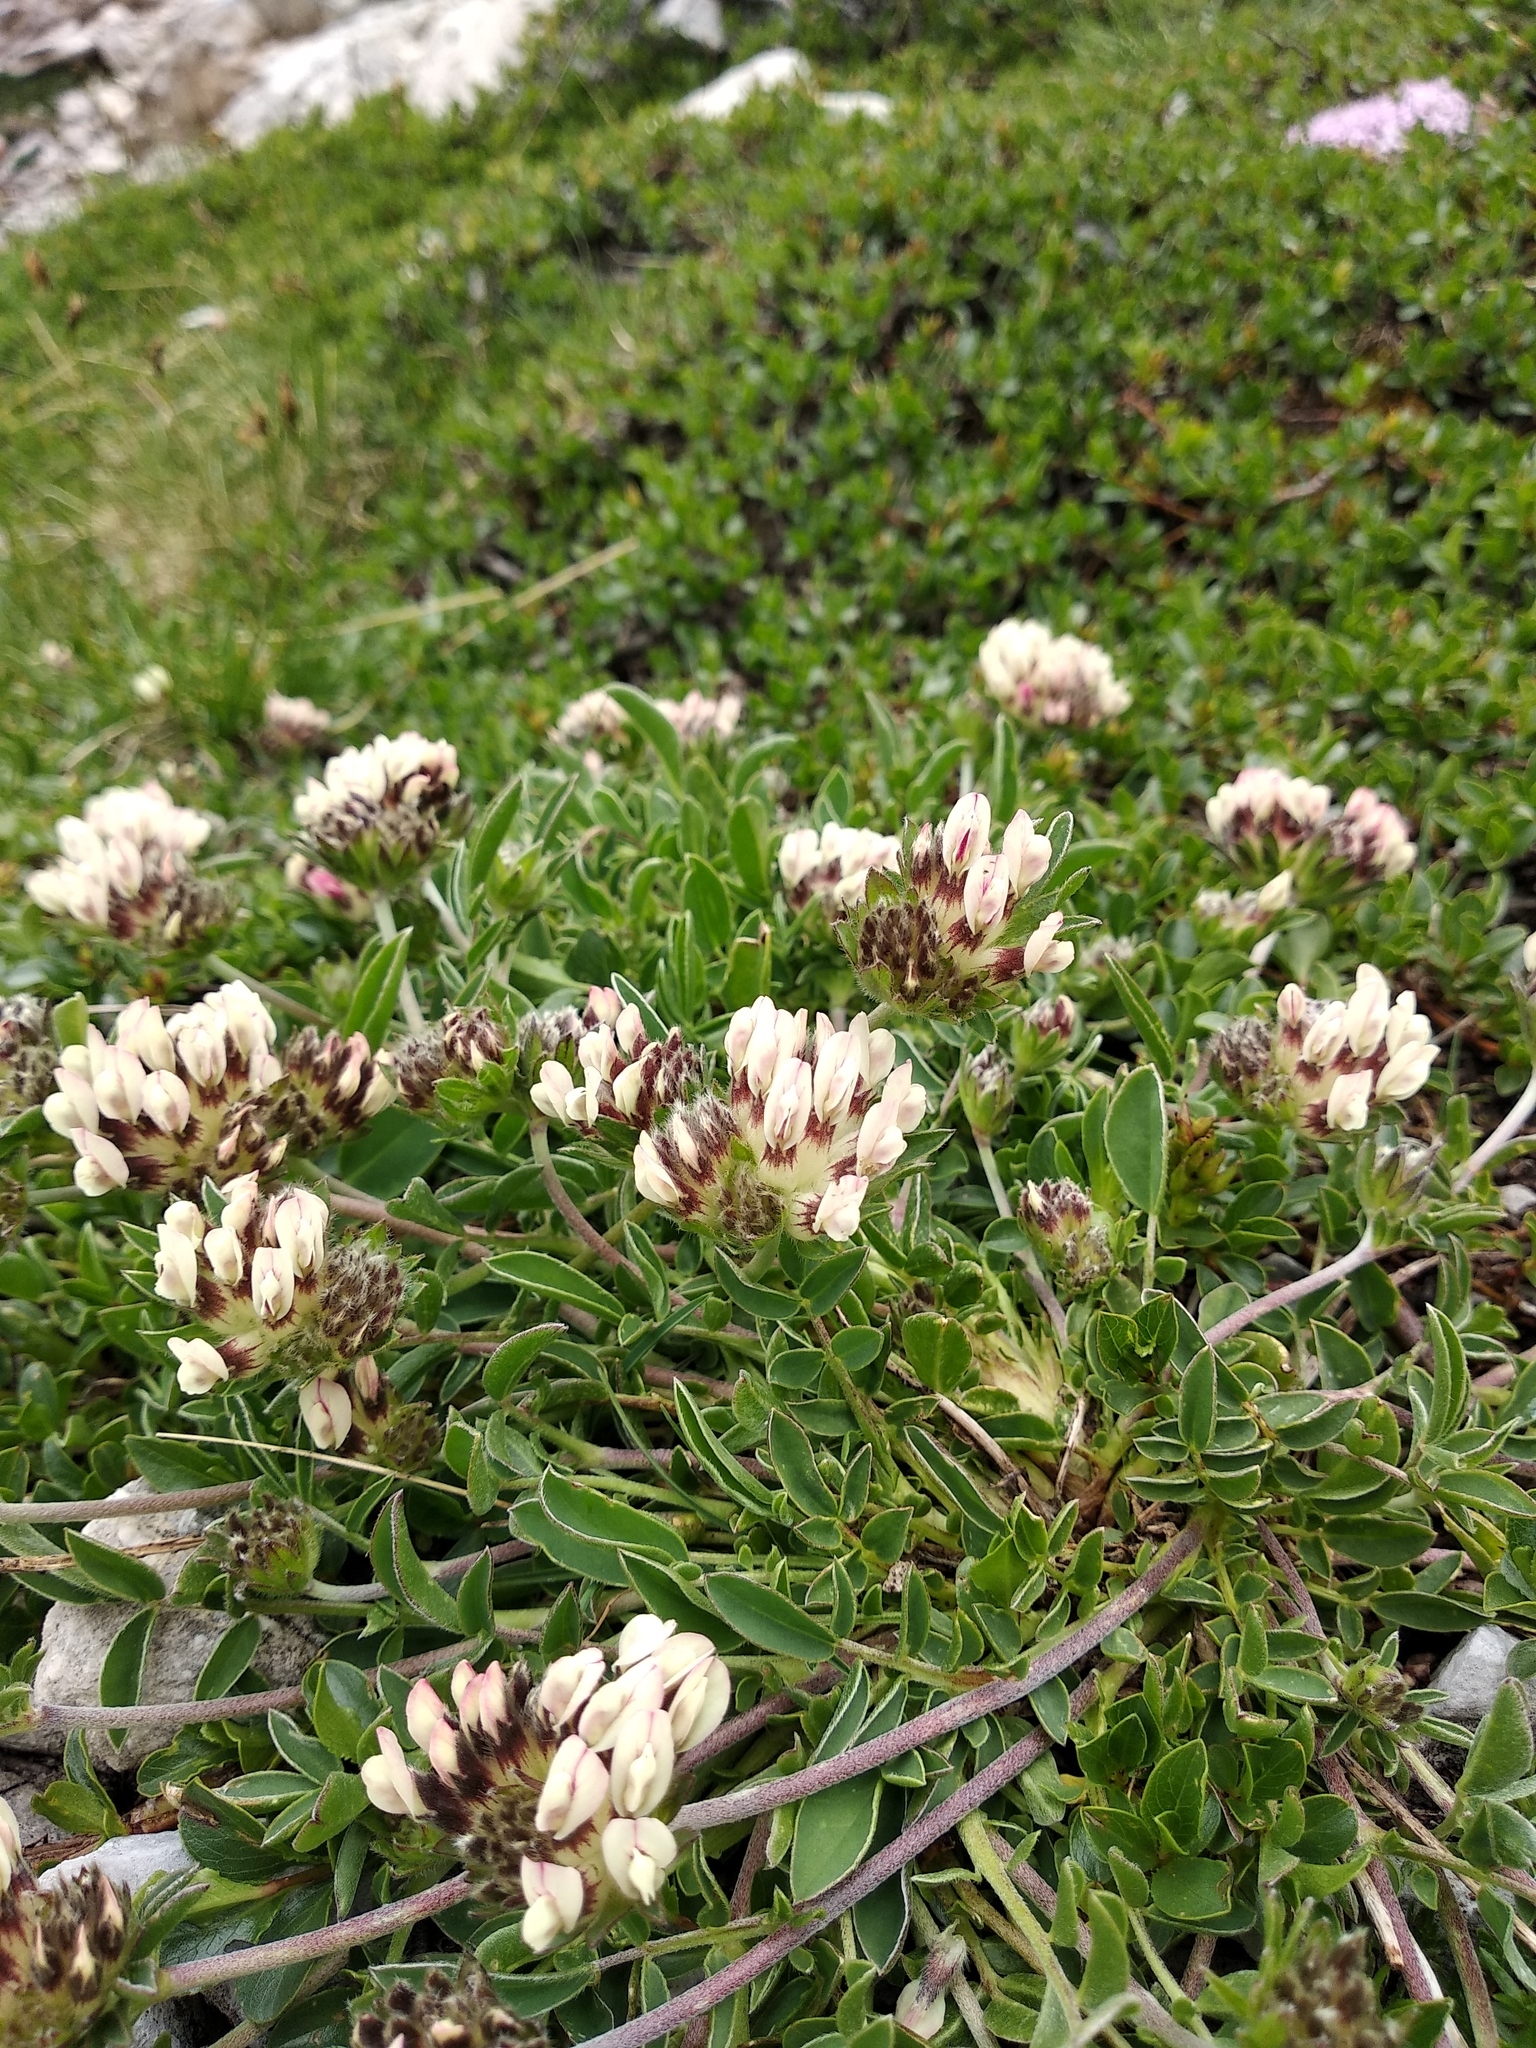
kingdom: Plantae
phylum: Tracheophyta
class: Magnoliopsida
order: Fabales
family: Fabaceae
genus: Anthyllis
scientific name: Anthyllis vulneraria
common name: Kidney vetch
